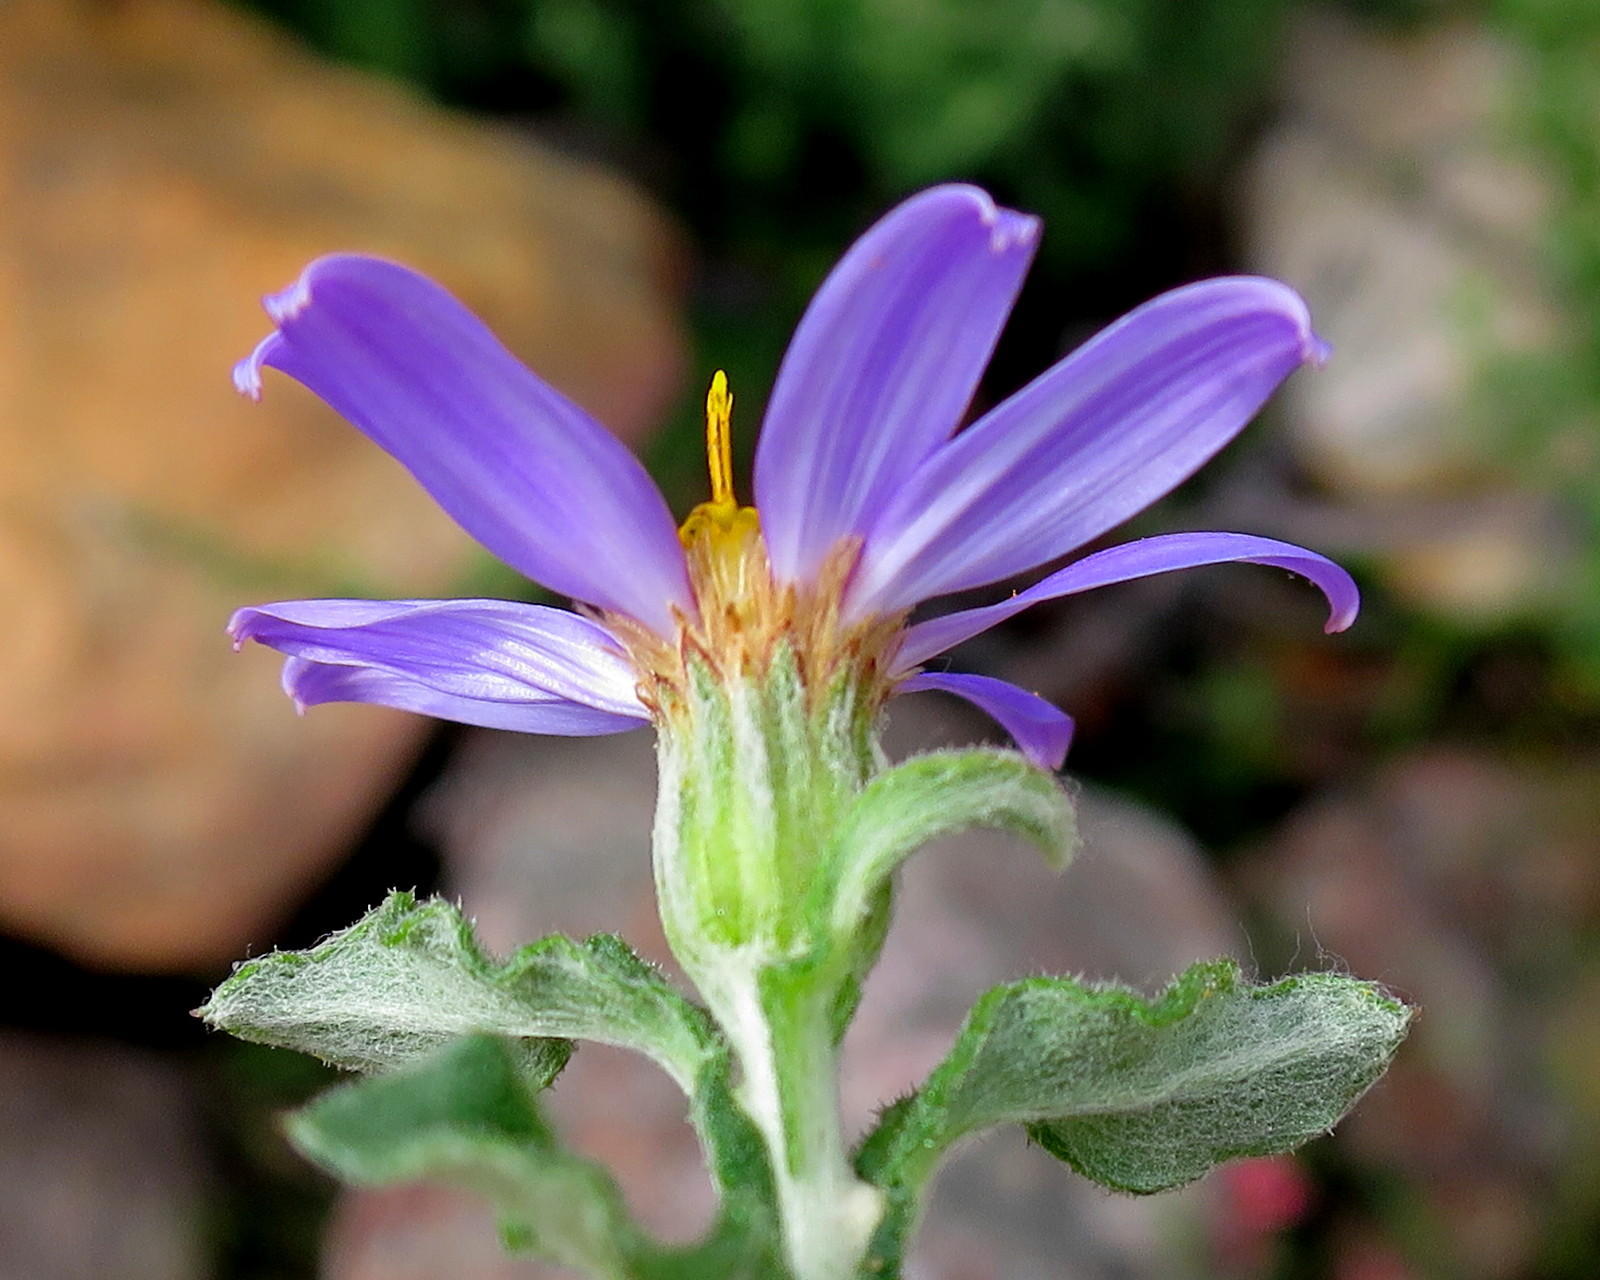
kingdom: Plantae
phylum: Tracheophyta
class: Magnoliopsida
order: Asterales
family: Asteraceae
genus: Printzia
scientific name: Printzia polifolia
